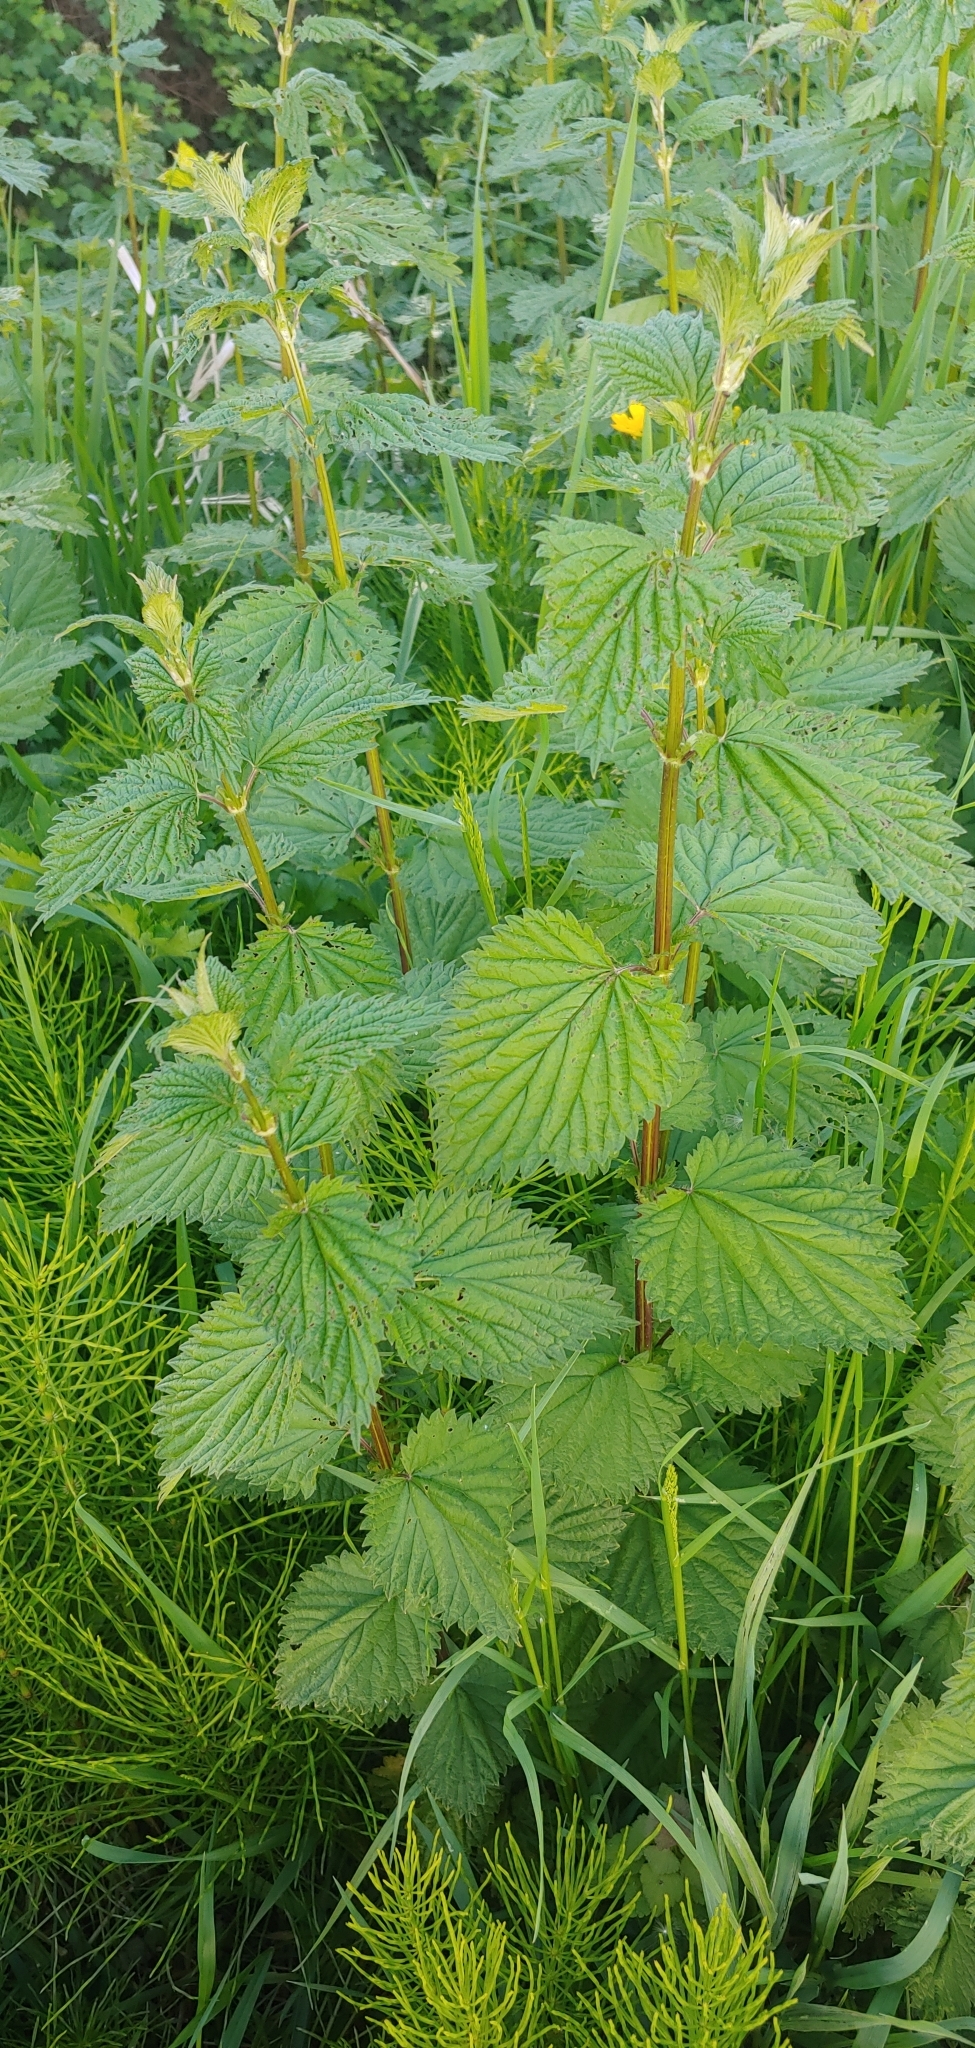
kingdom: Plantae
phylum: Tracheophyta
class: Magnoliopsida
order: Rosales
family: Urticaceae
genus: Urtica
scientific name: Urtica dioica
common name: Common nettle
